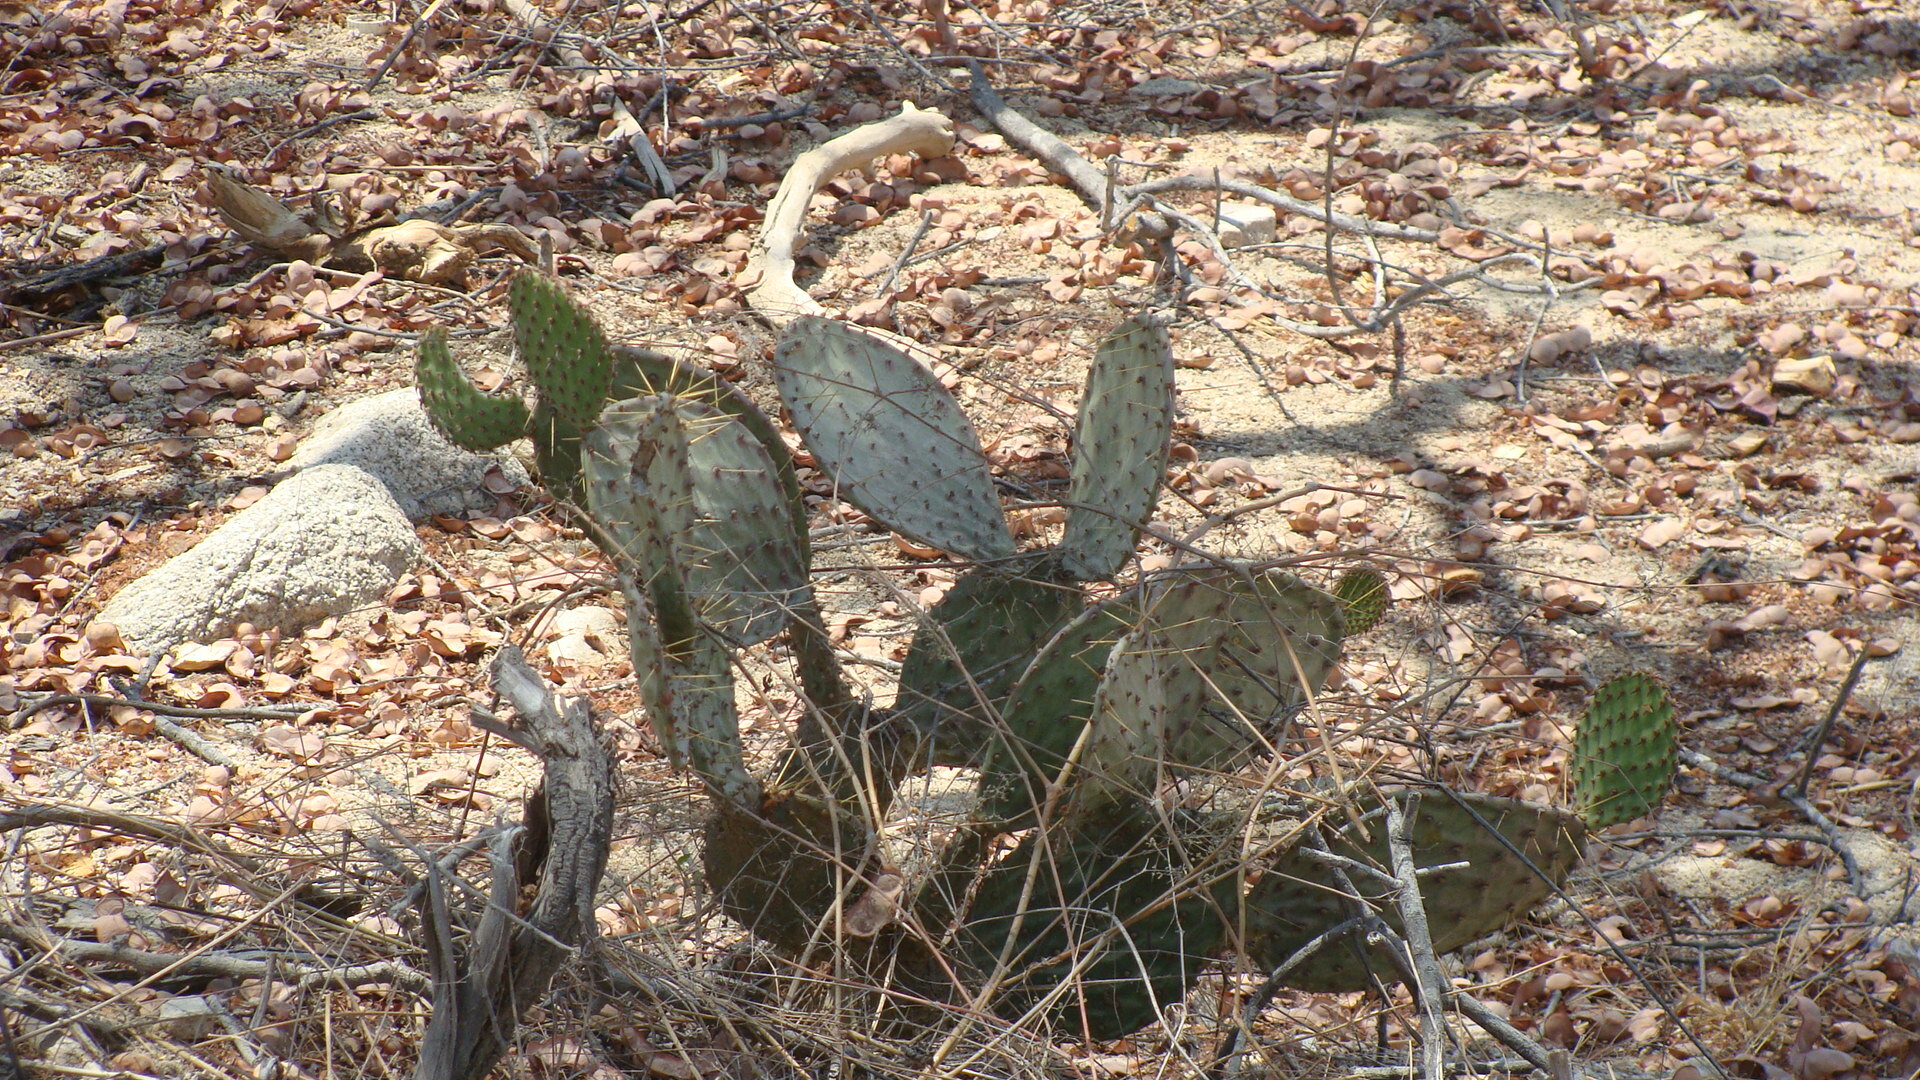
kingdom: Plantae
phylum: Tracheophyta
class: Magnoliopsida
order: Caryophyllales
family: Cactaceae
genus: Opuntia
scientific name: Opuntia caboensis
